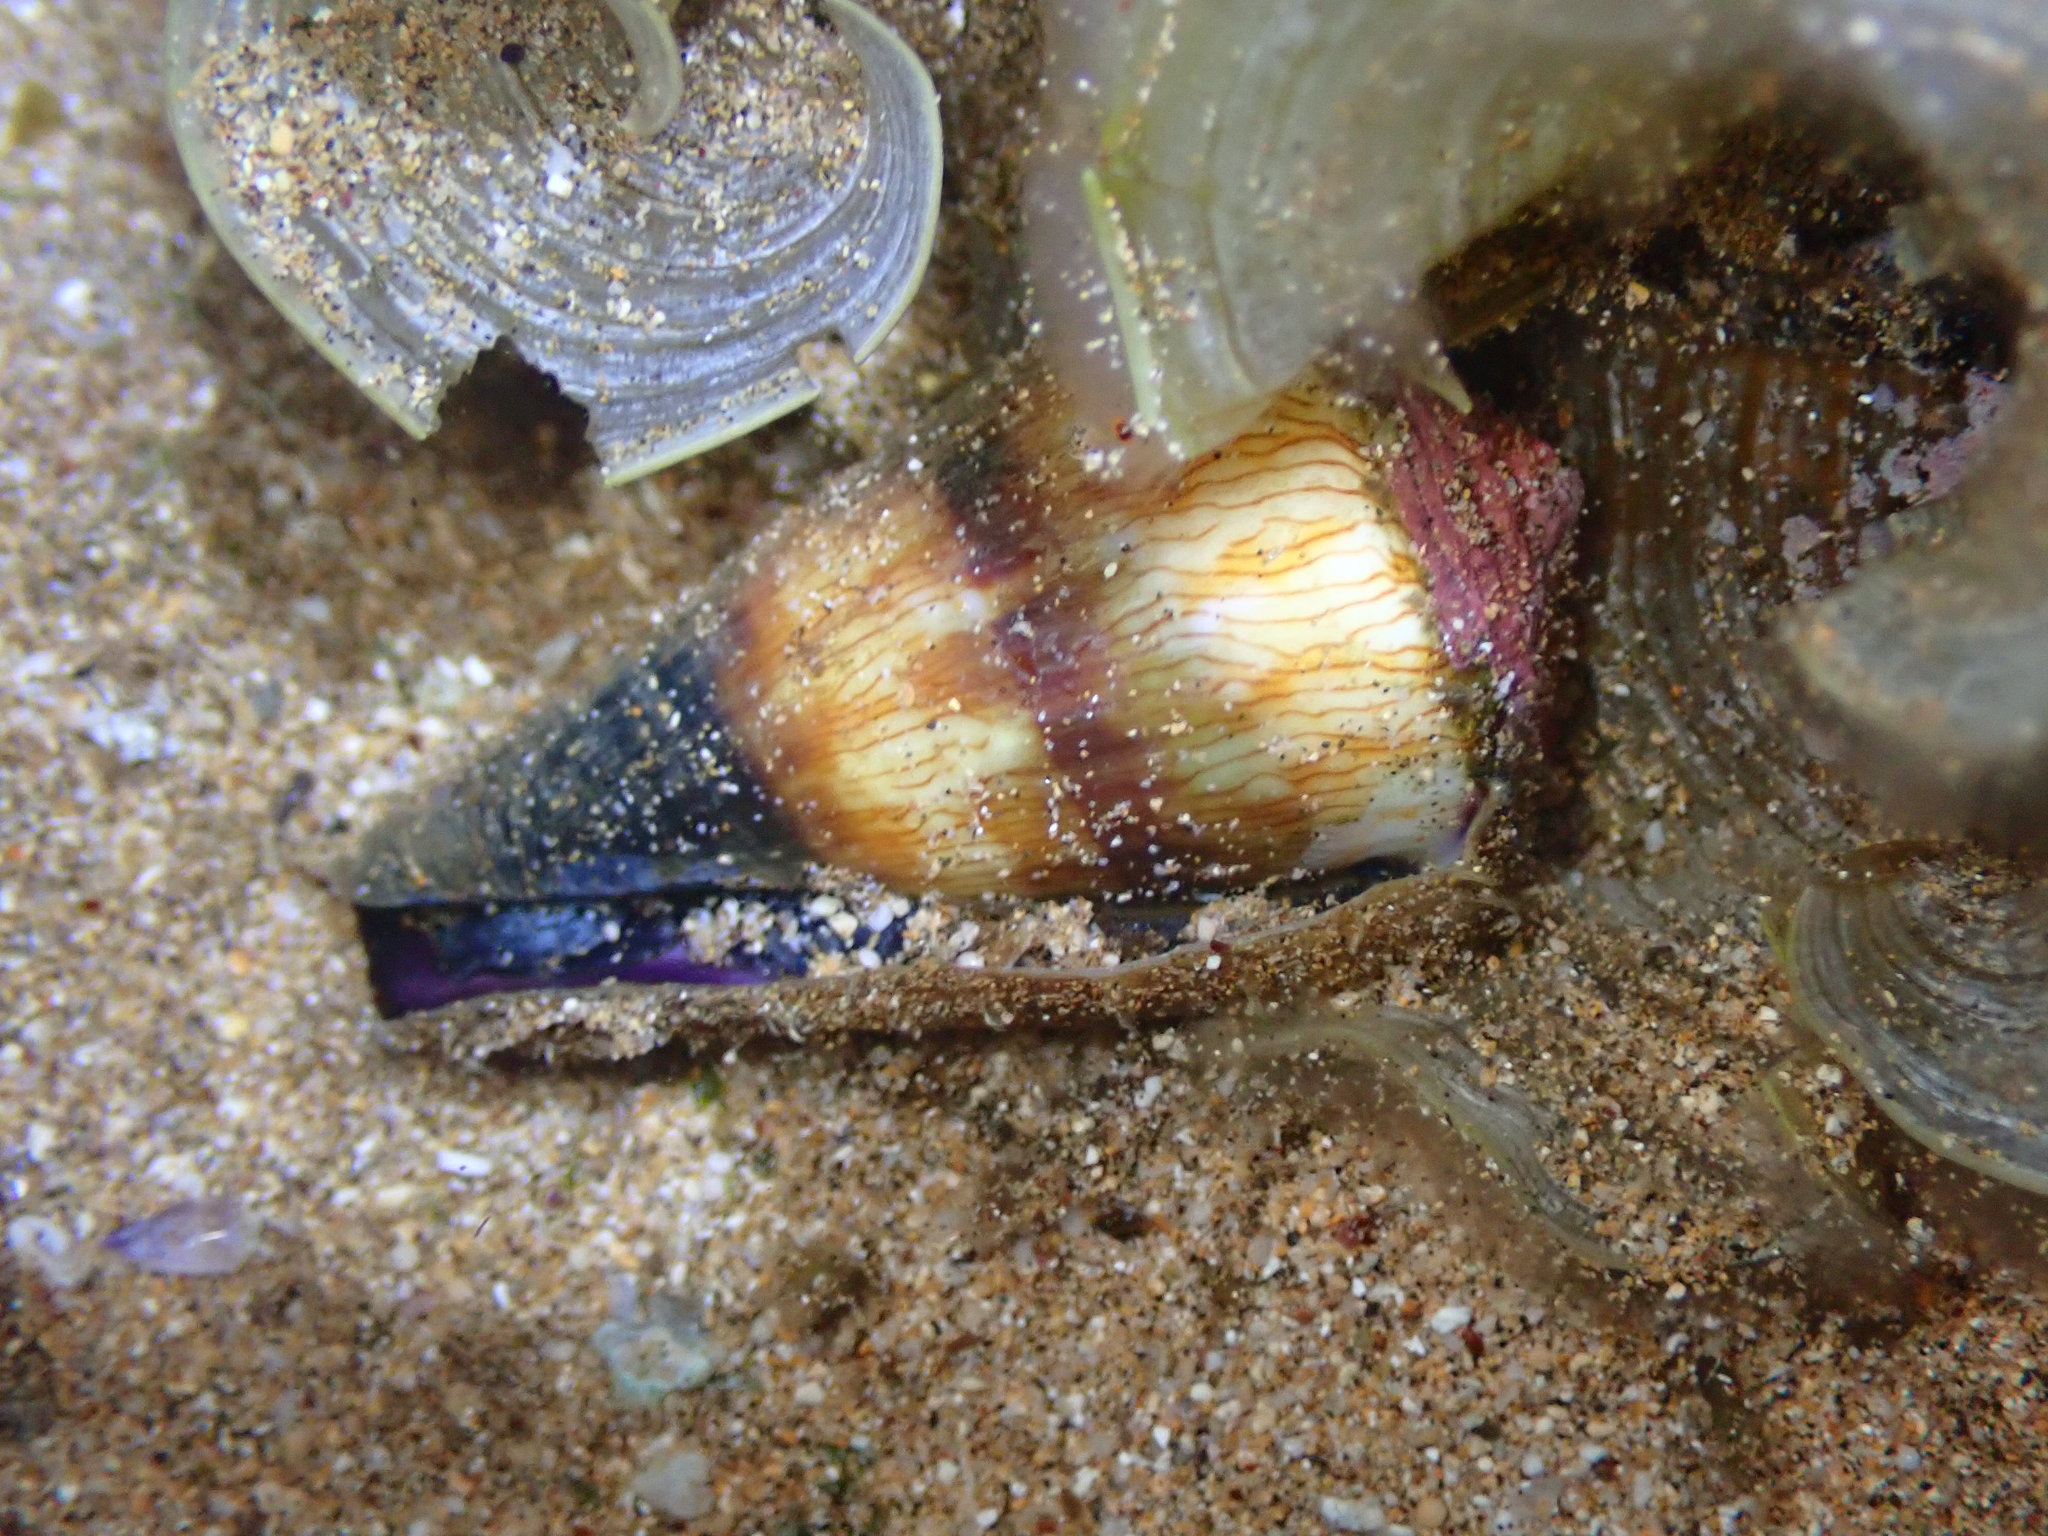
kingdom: Animalia
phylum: Mollusca
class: Gastropoda
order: Neogastropoda
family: Conidae
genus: Conus
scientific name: Conus miles
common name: Soldier cone
